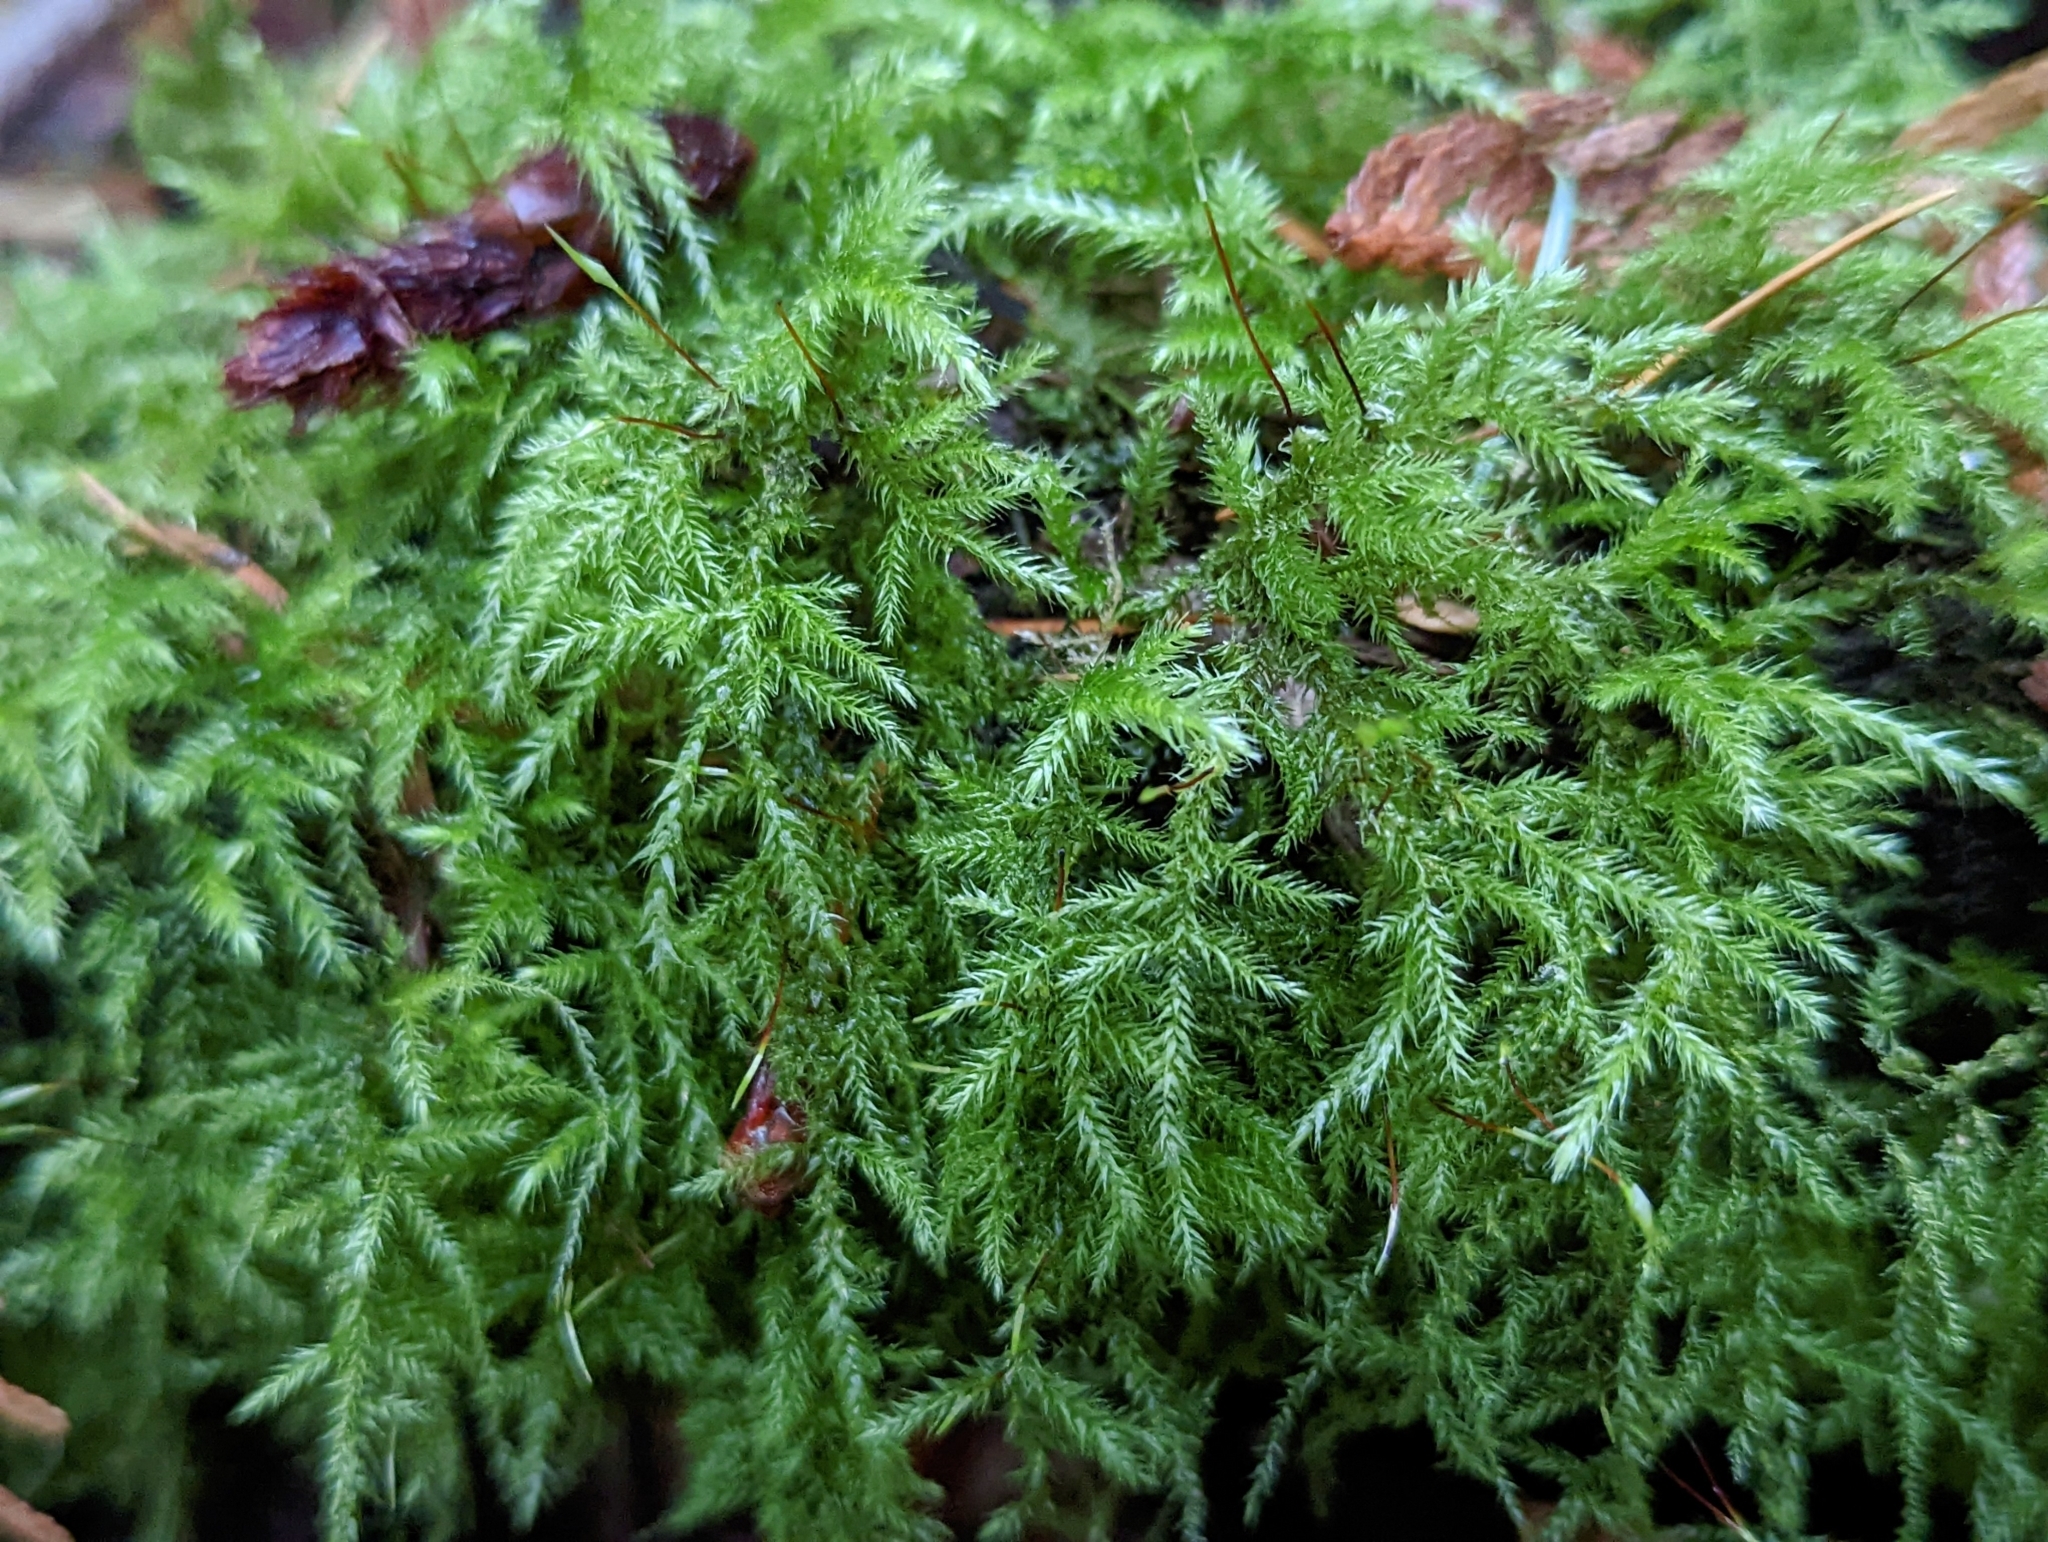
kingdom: Plantae
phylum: Bryophyta
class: Bryopsida
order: Hypnales
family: Lembophyllaceae
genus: Pseudisothecium
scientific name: Pseudisothecium stoloniferum
